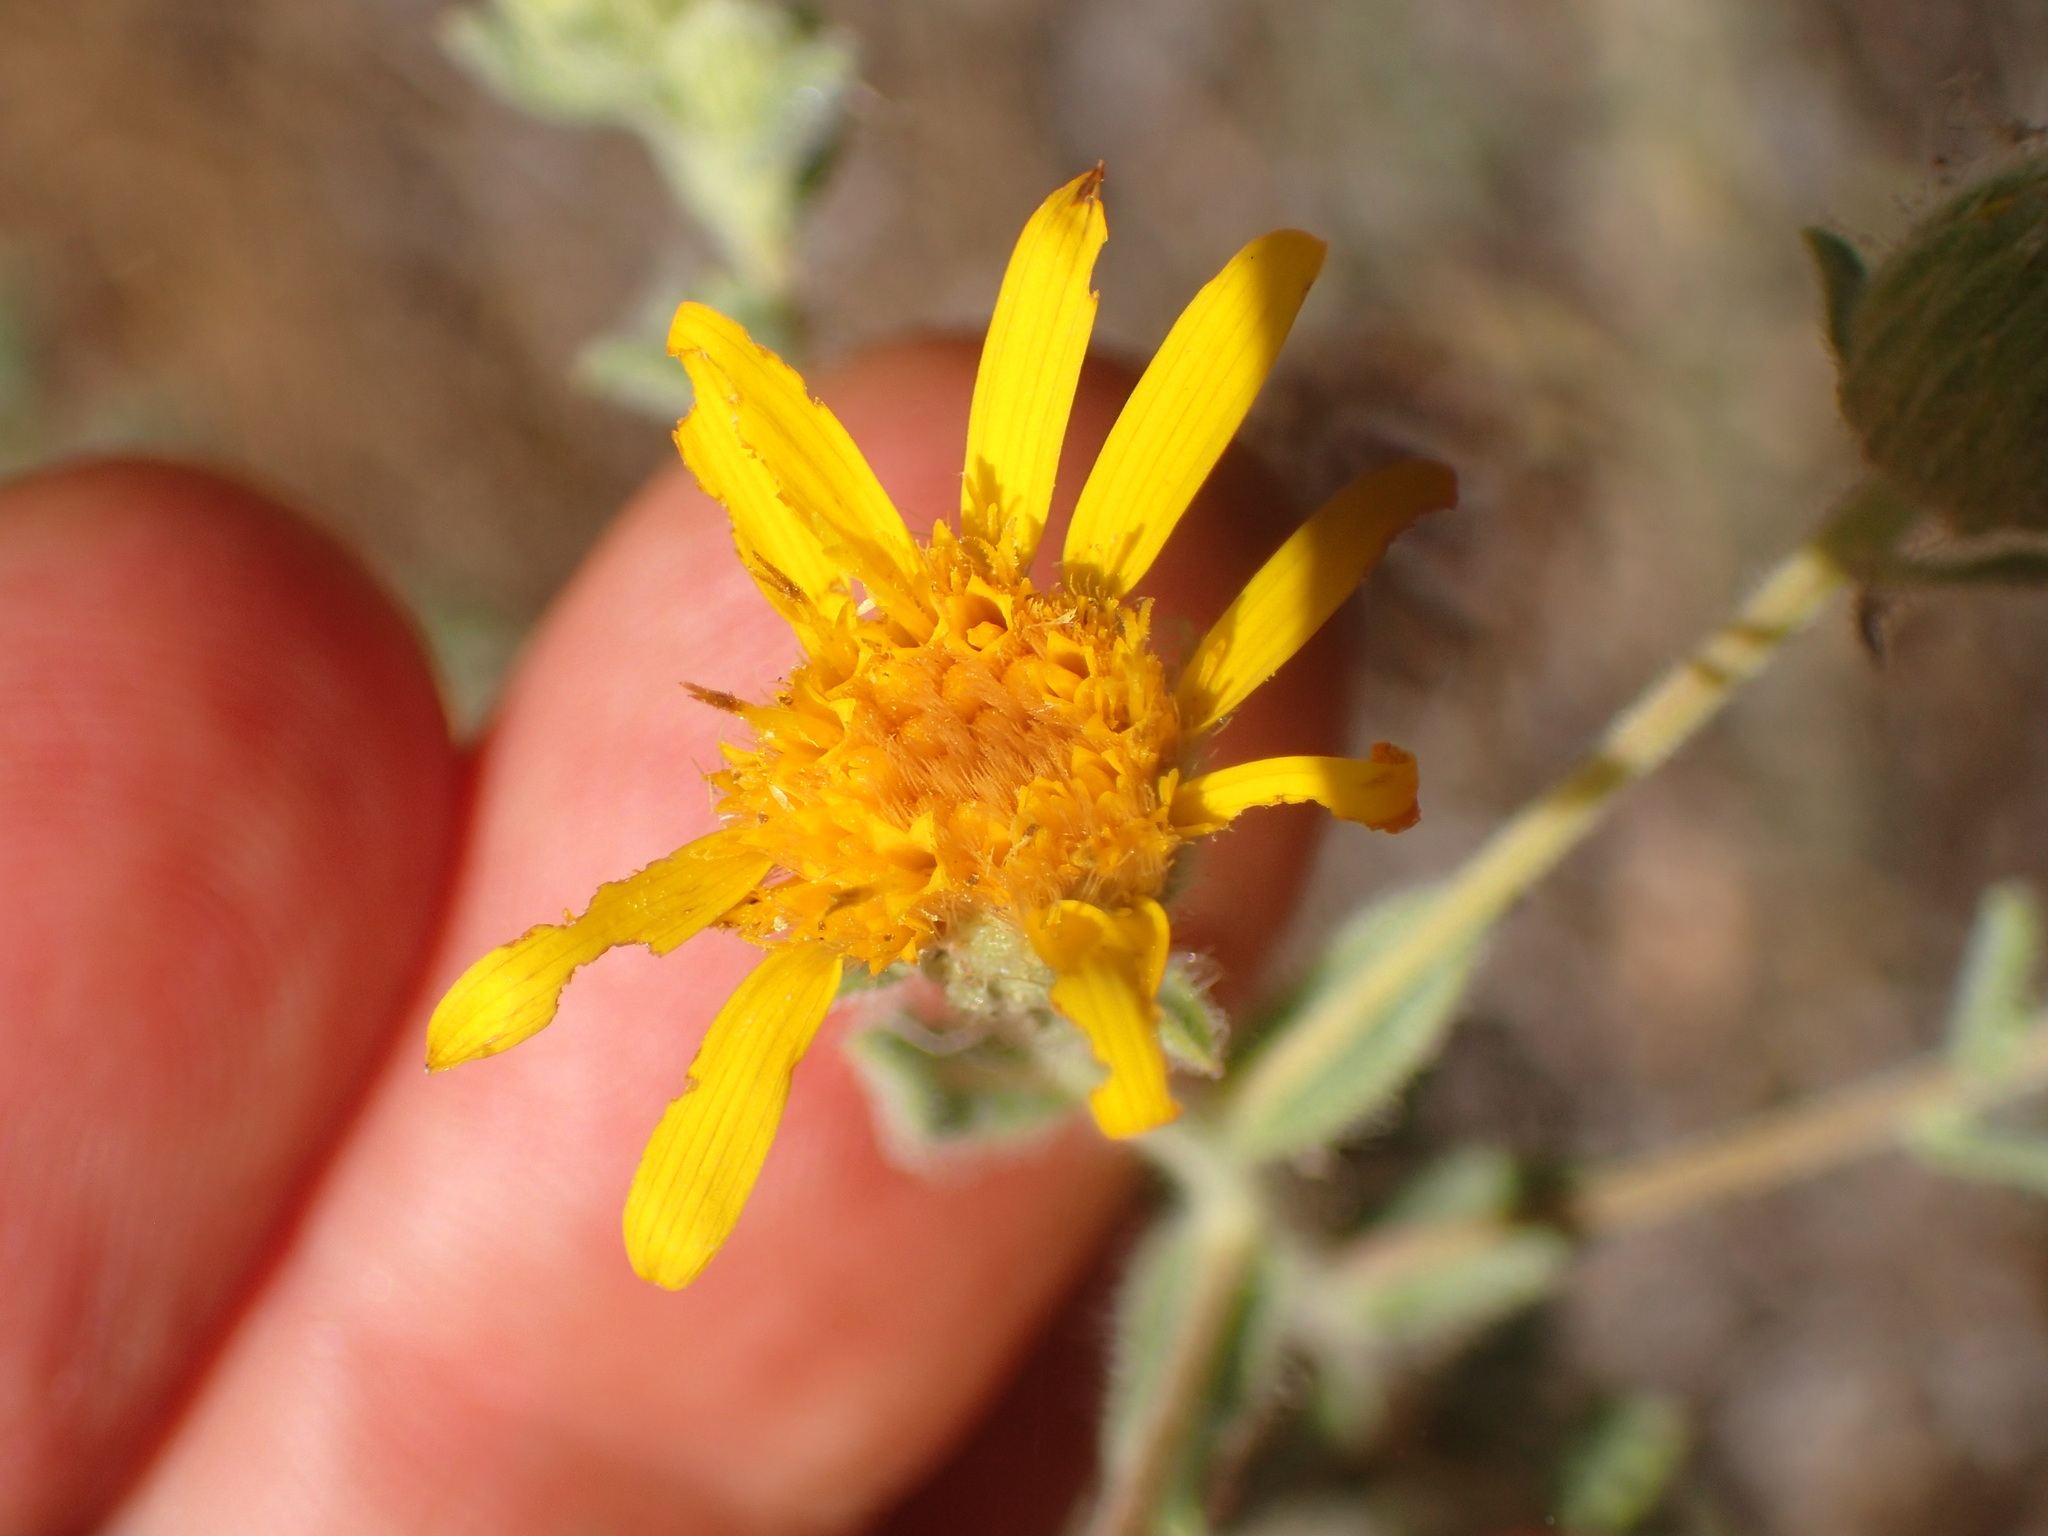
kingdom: Plantae
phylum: Tracheophyta
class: Magnoliopsida
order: Asterales
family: Asteraceae
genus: Heterotheca
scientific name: Heterotheca sessiliflora
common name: Sessile-flower golden-aster
